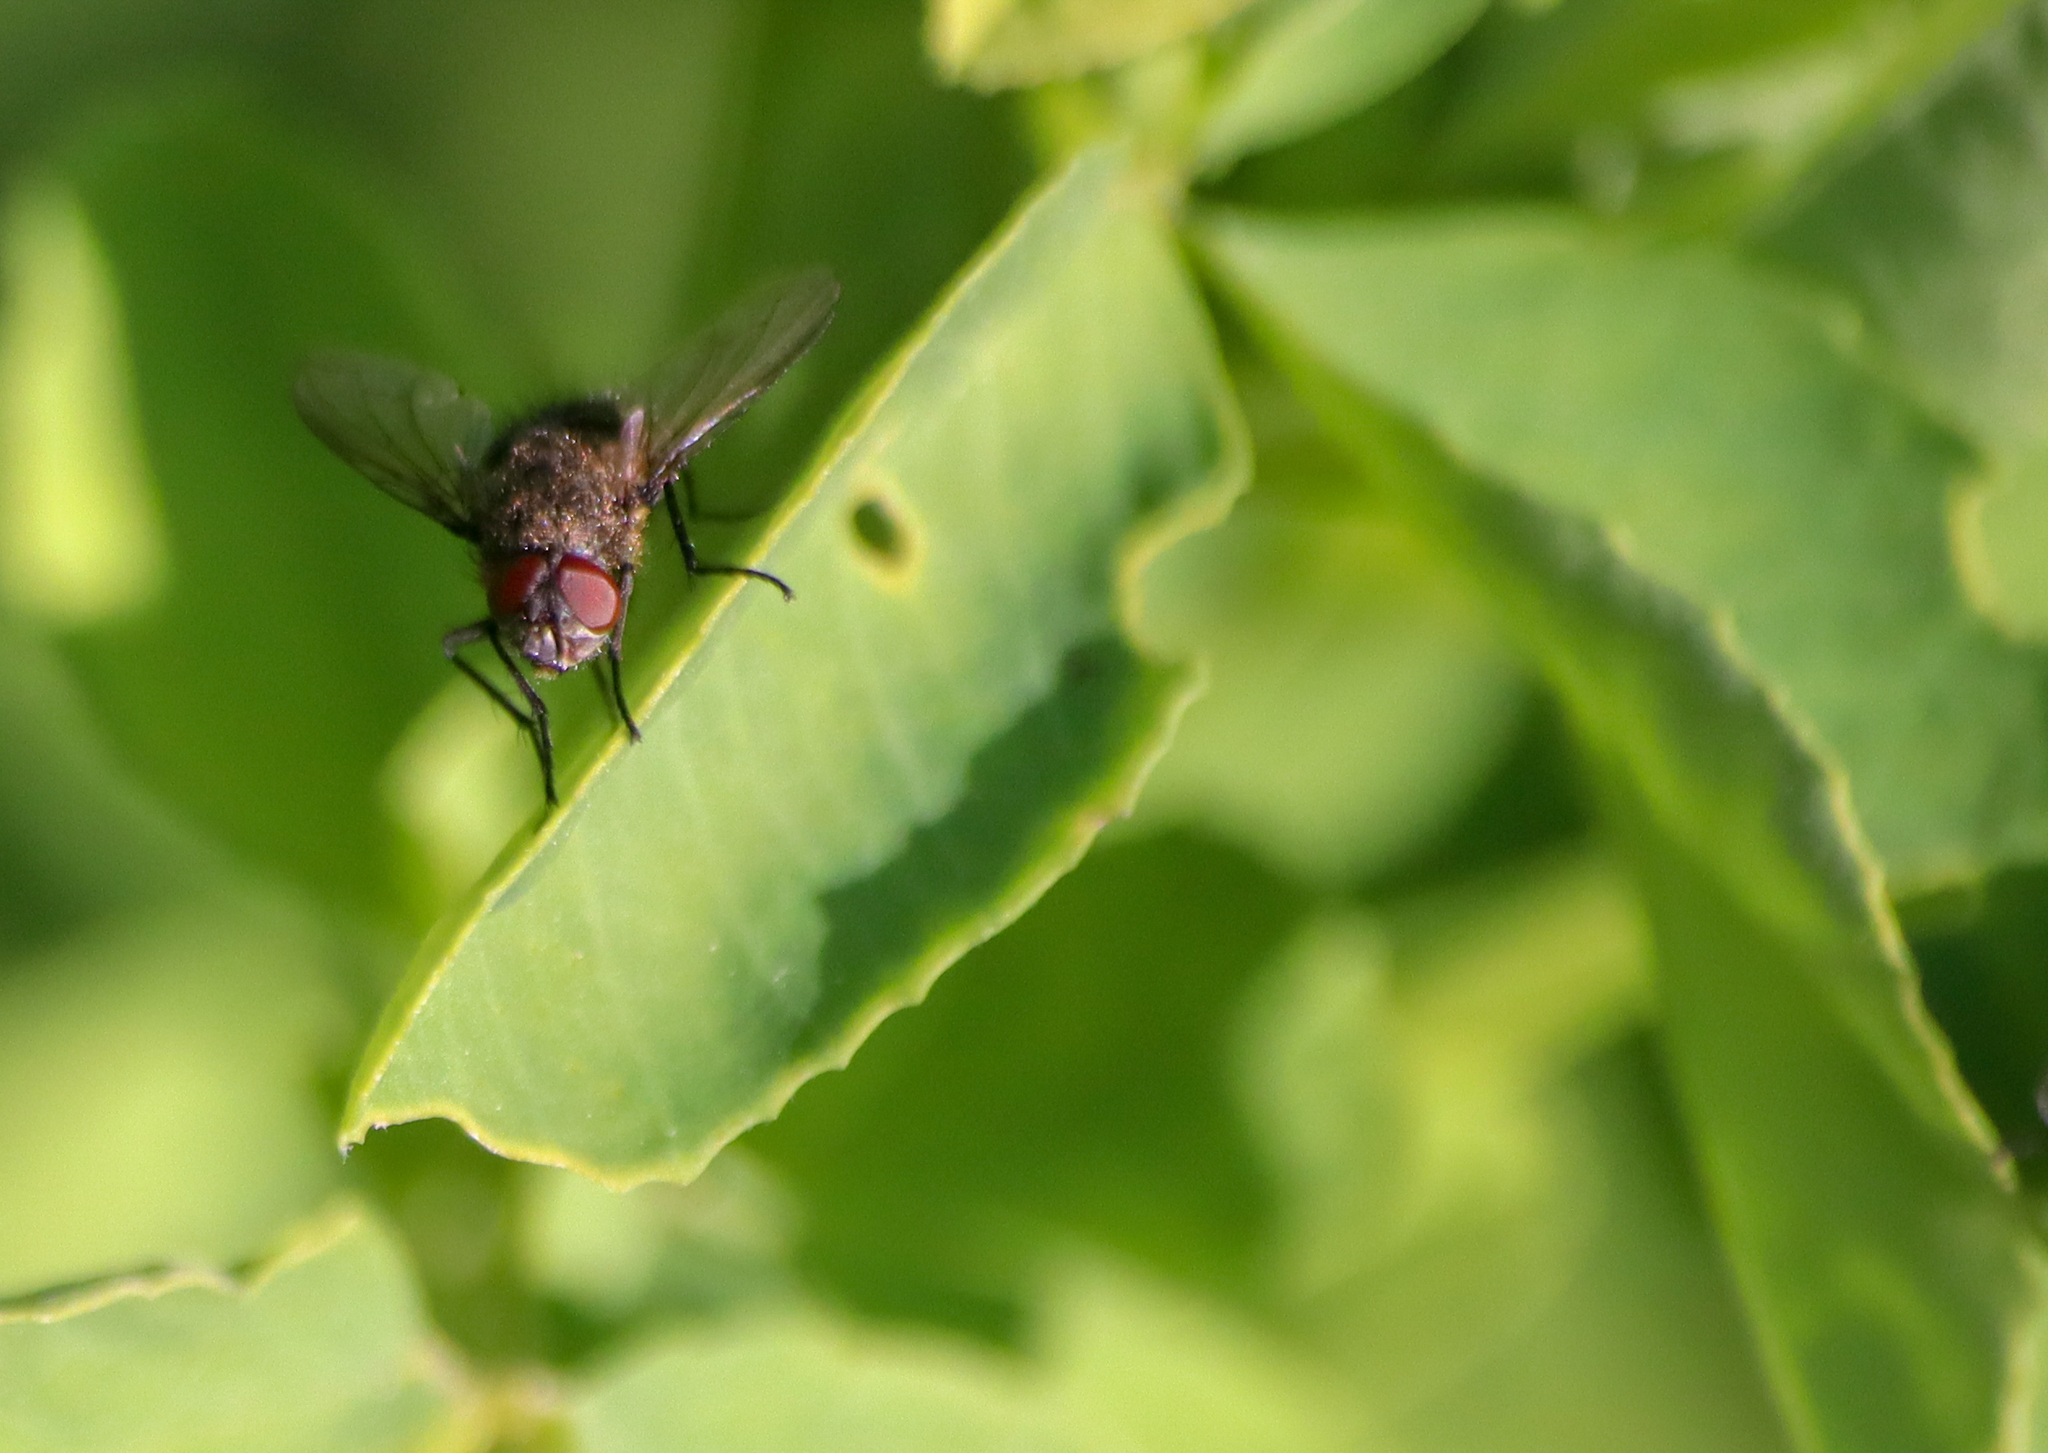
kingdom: Animalia
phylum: Arthropoda
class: Insecta
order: Diptera
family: Polleniidae
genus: Pollenia
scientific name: Pollenia
